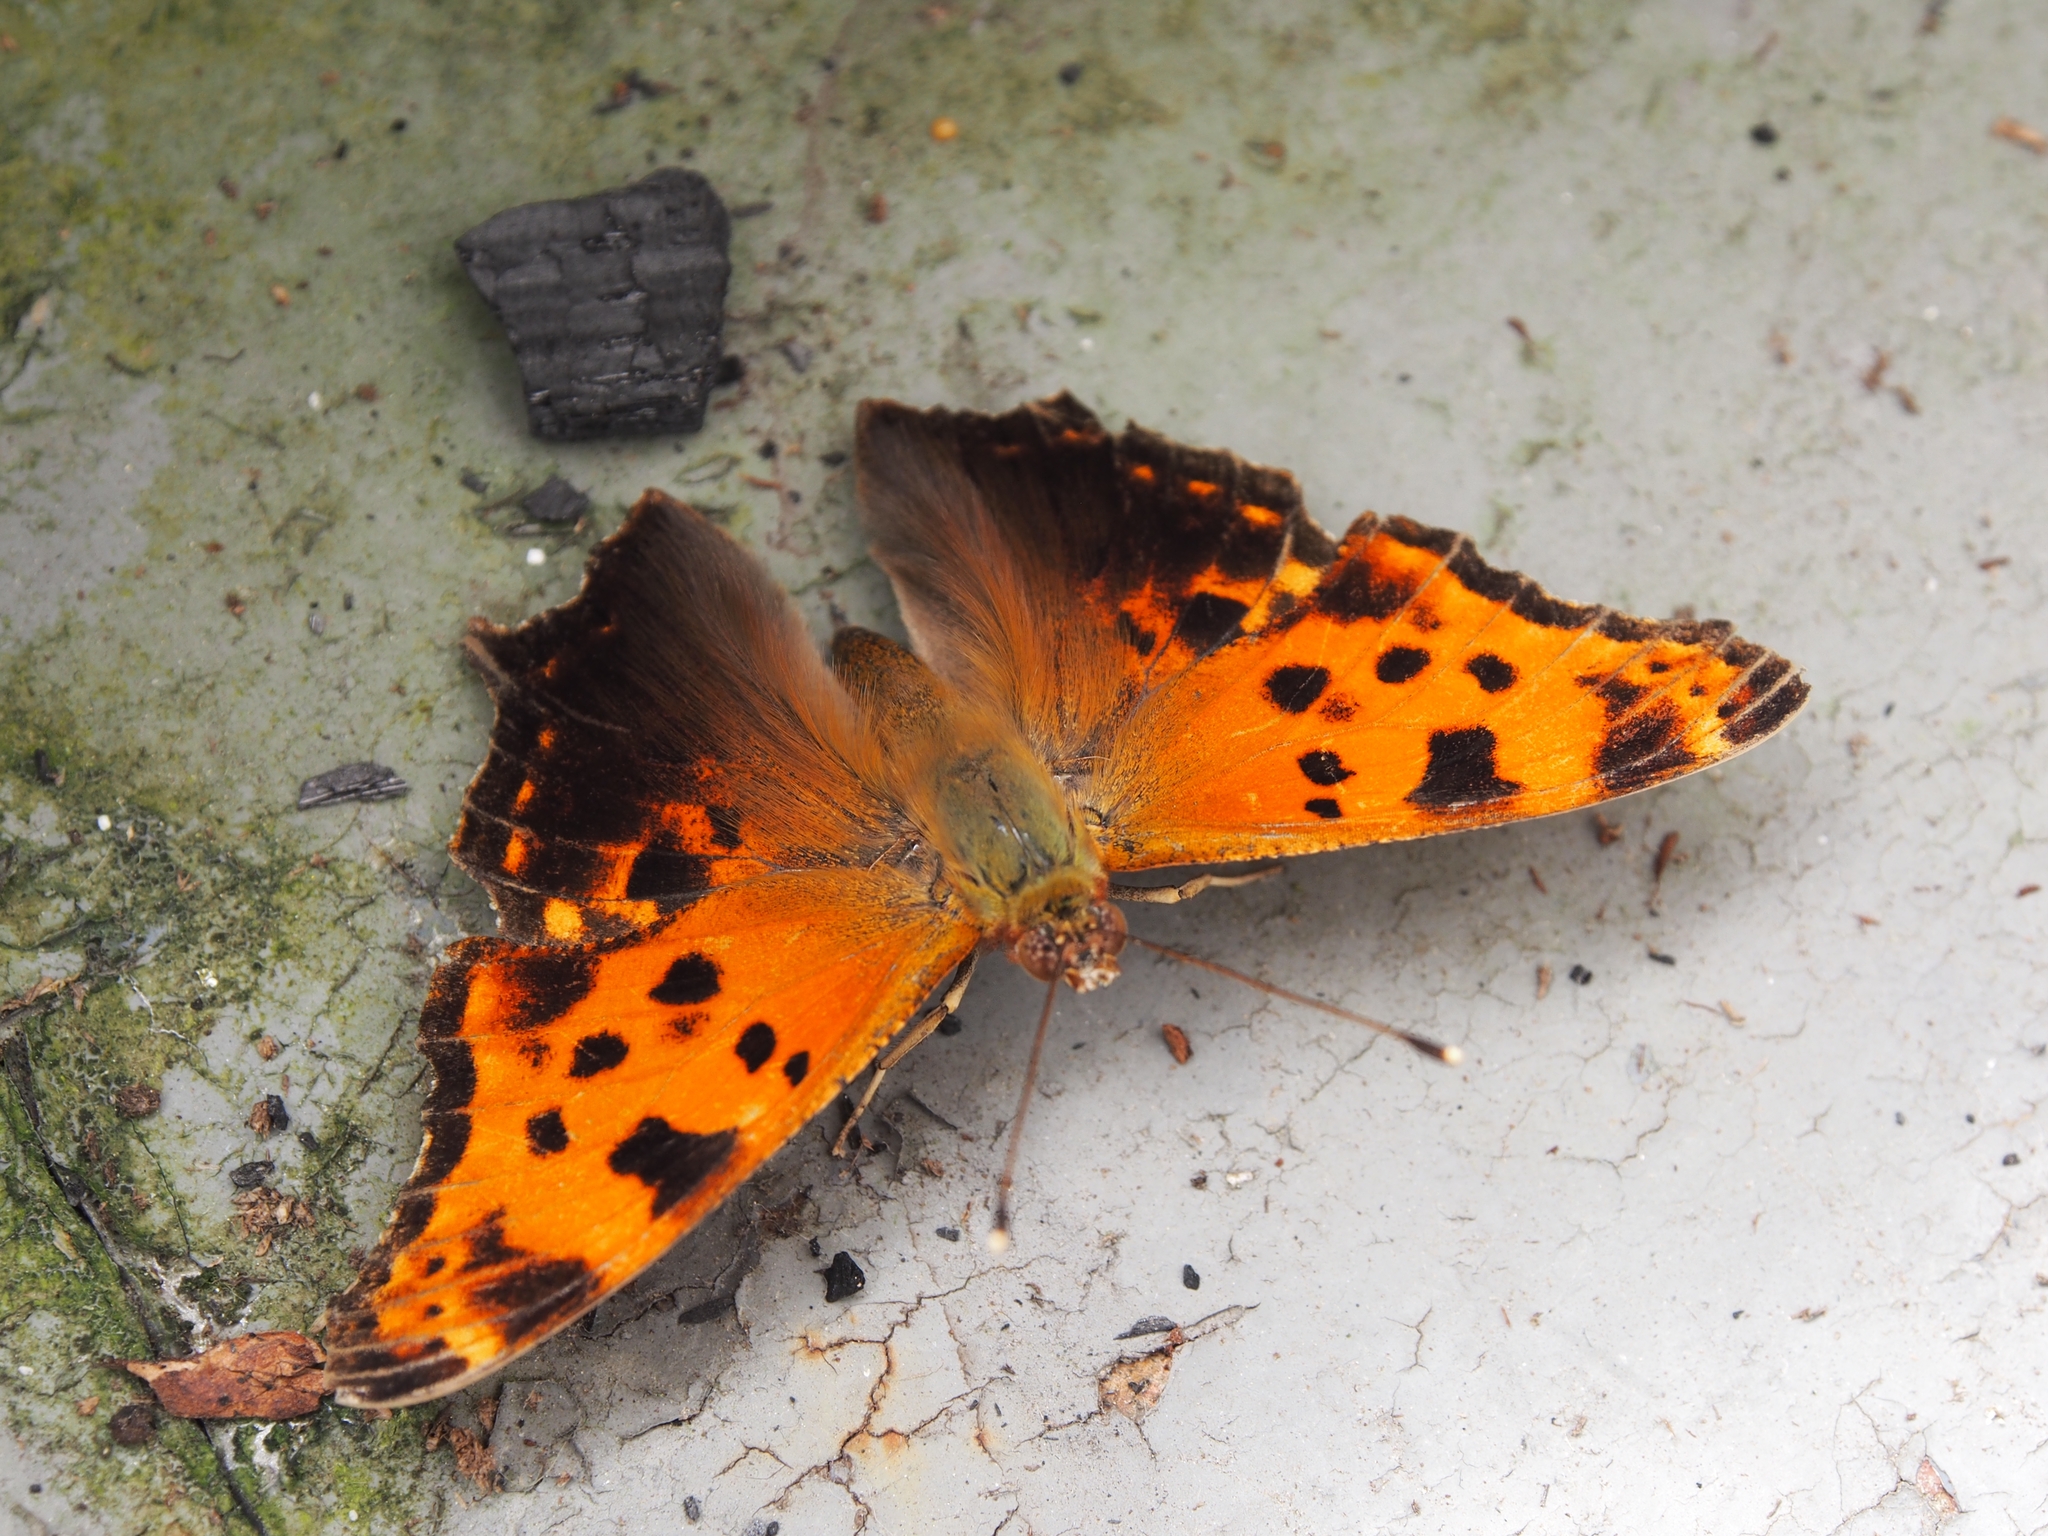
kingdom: Animalia
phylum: Arthropoda
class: Insecta
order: Lepidoptera
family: Nymphalidae
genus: Polygonia
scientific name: Polygonia comma
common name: Eastern comma
